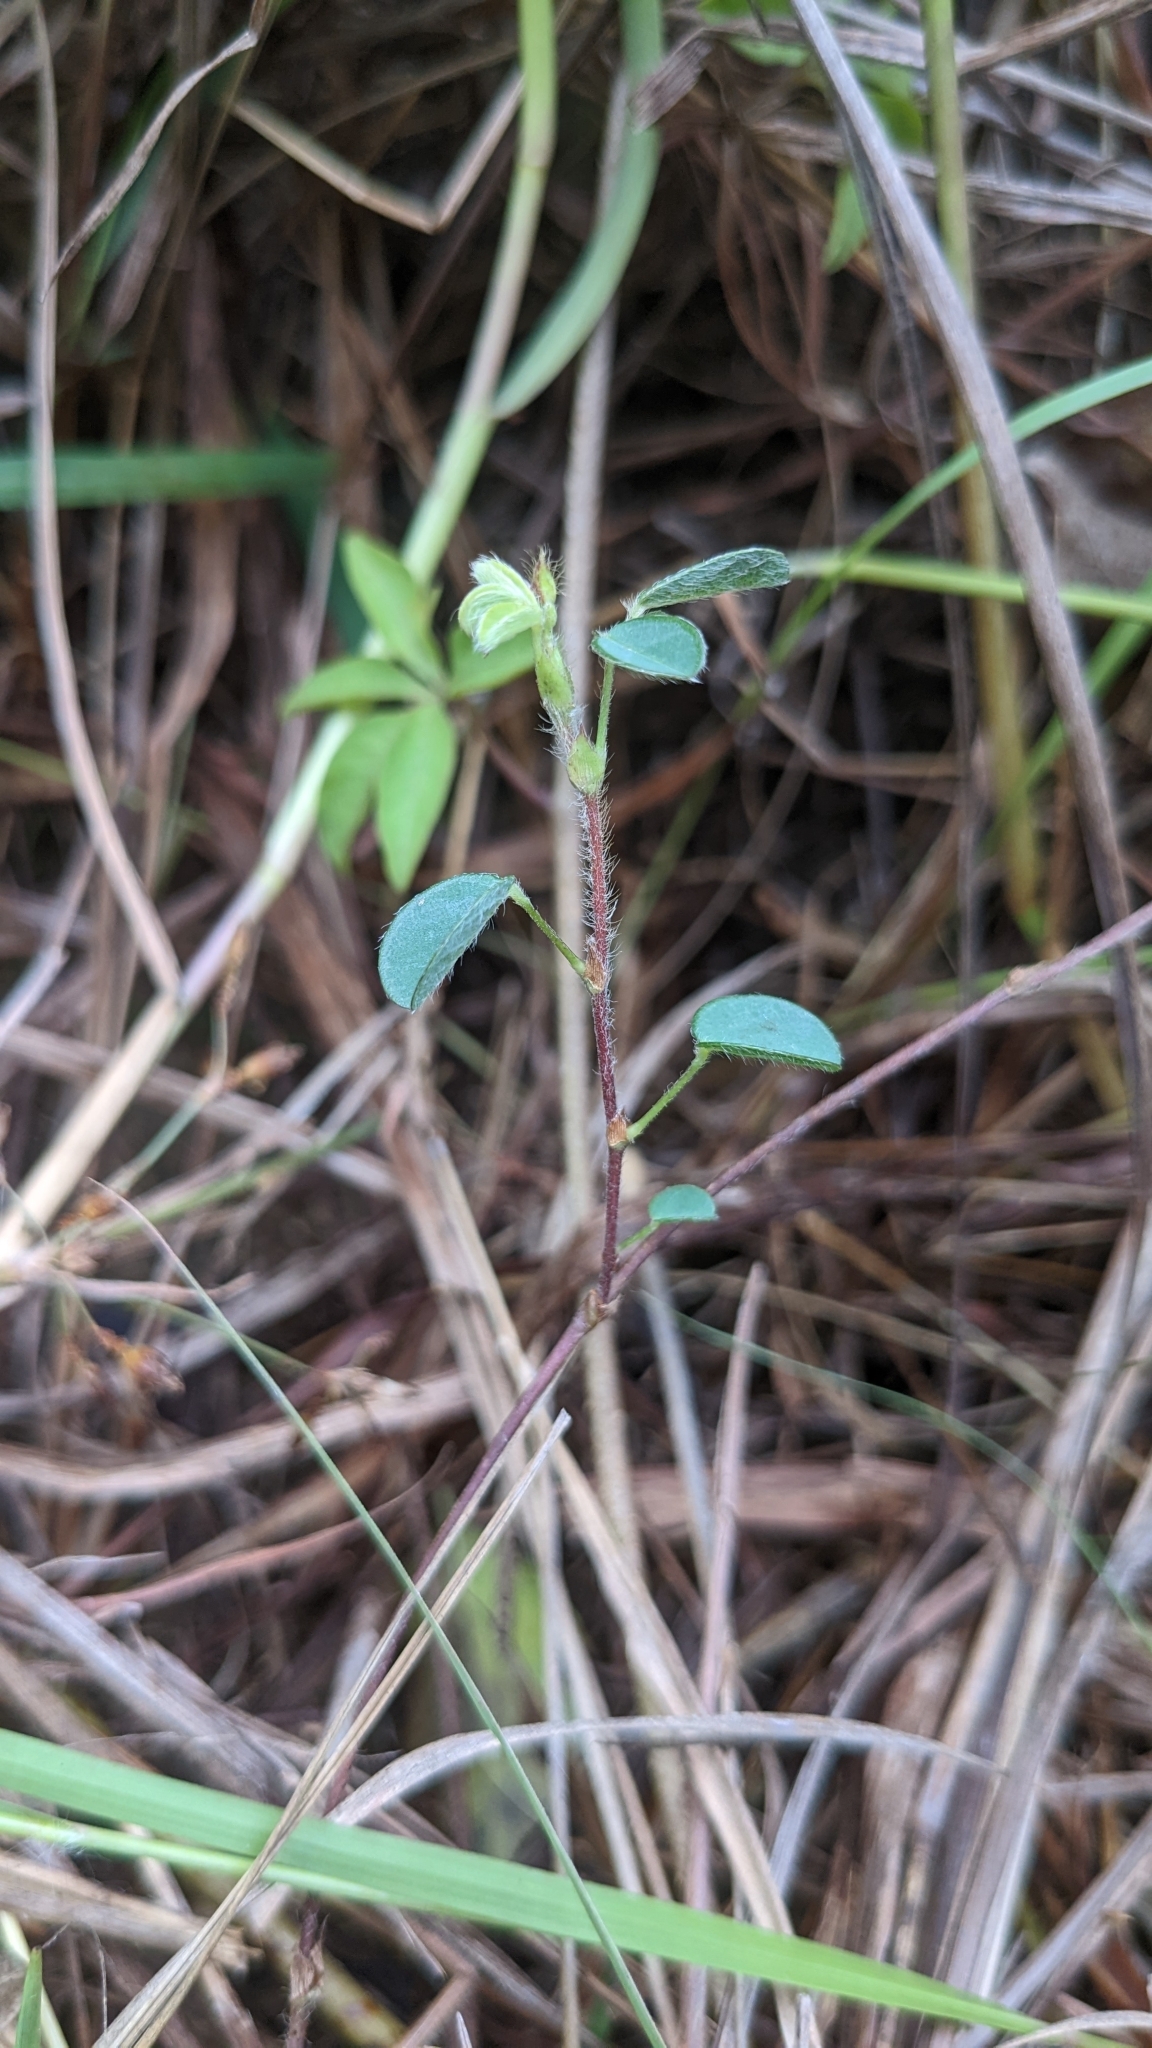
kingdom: Plantae
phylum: Tracheophyta
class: Magnoliopsida
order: Fabales
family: Fabaceae
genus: Grona
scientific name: Grona heterophylla
